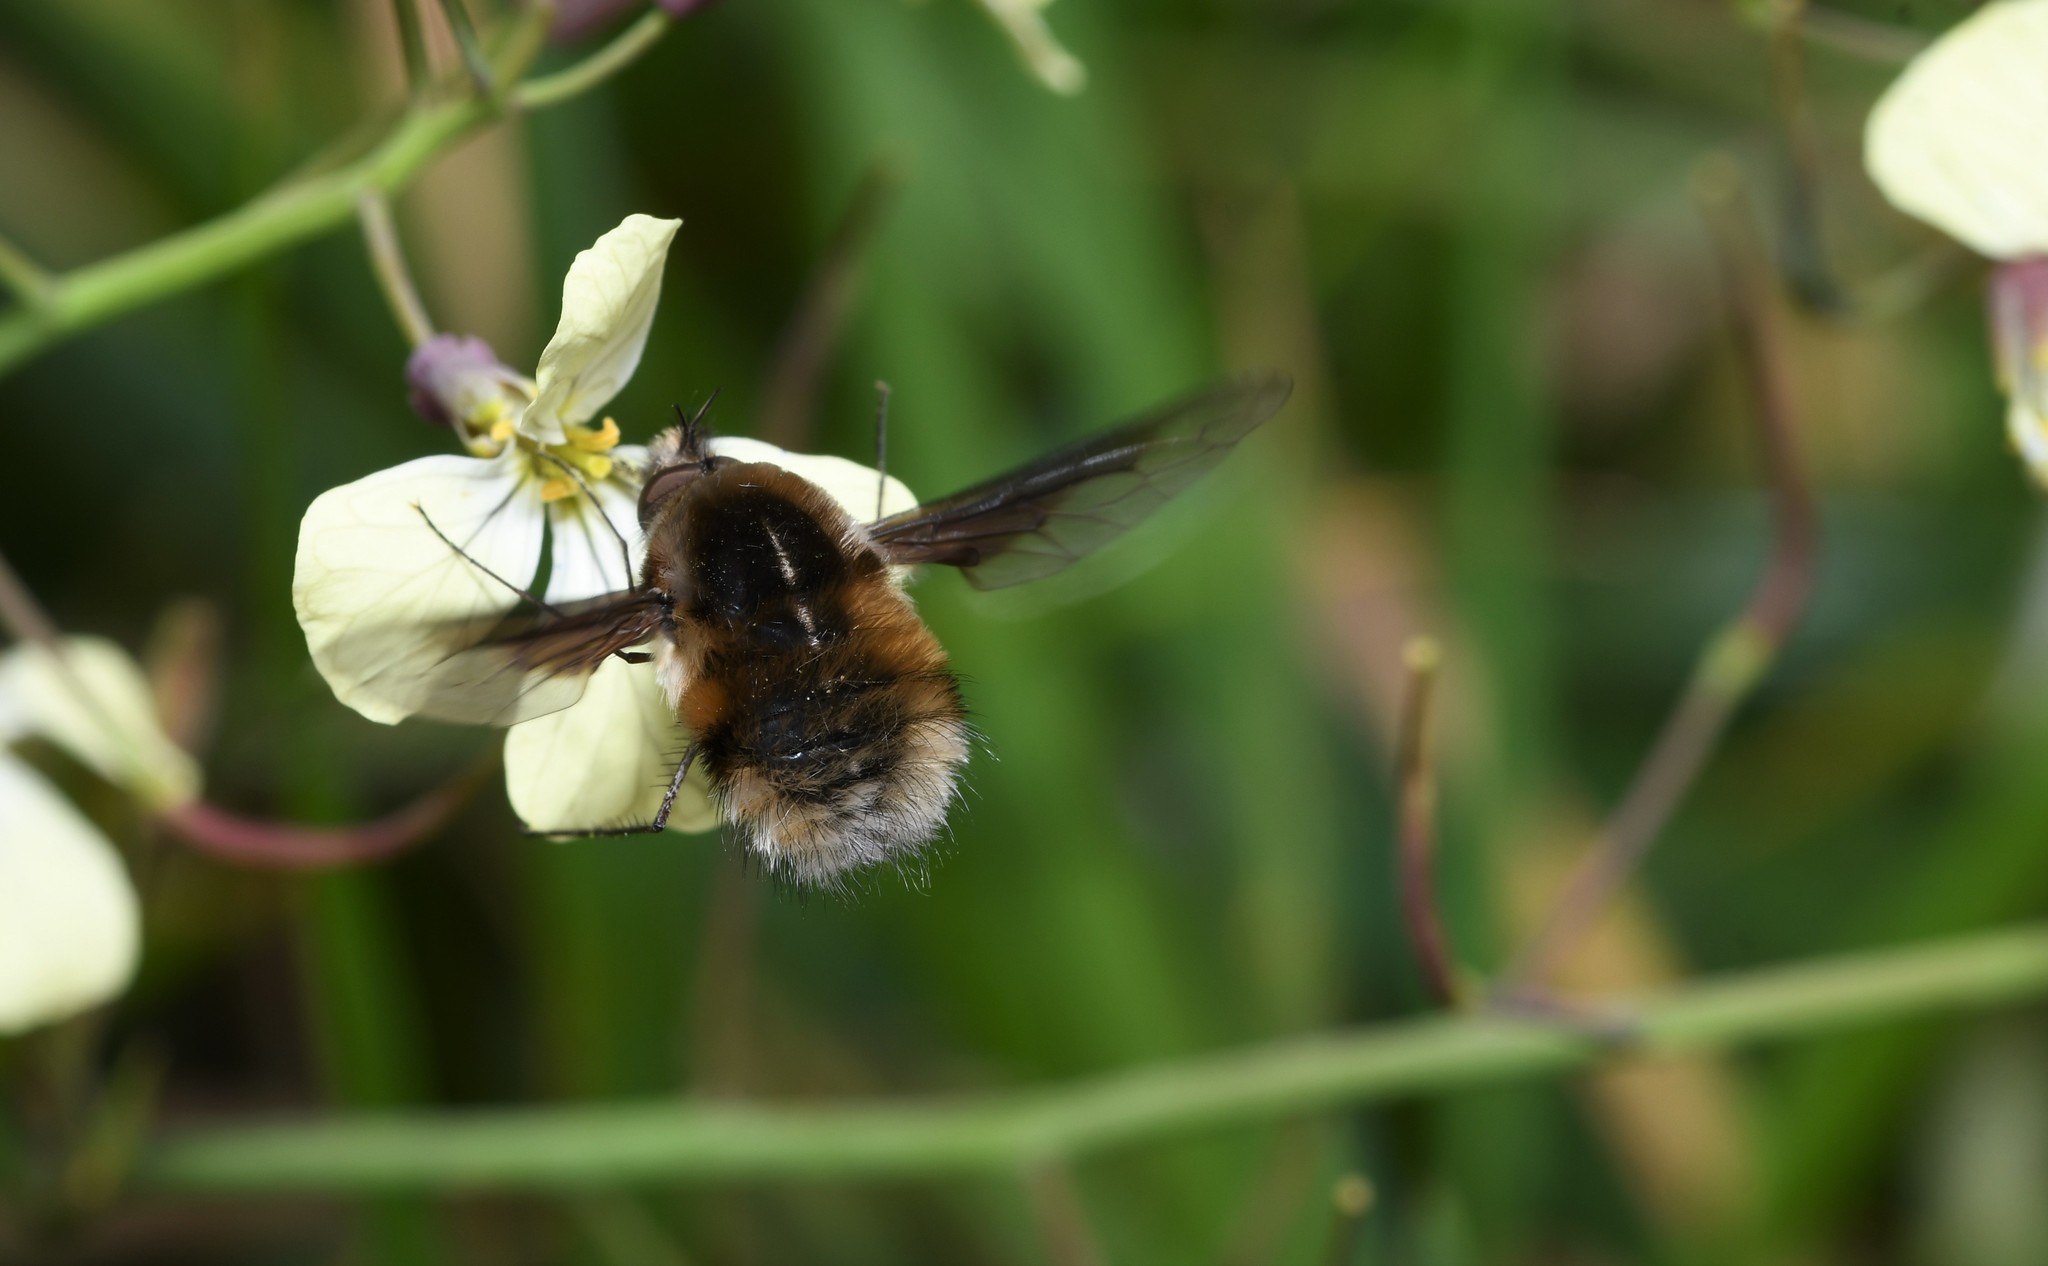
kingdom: Animalia
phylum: Arthropoda
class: Insecta
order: Diptera
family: Bombyliidae
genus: Bombylius
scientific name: Bombylius major
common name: Bee fly
